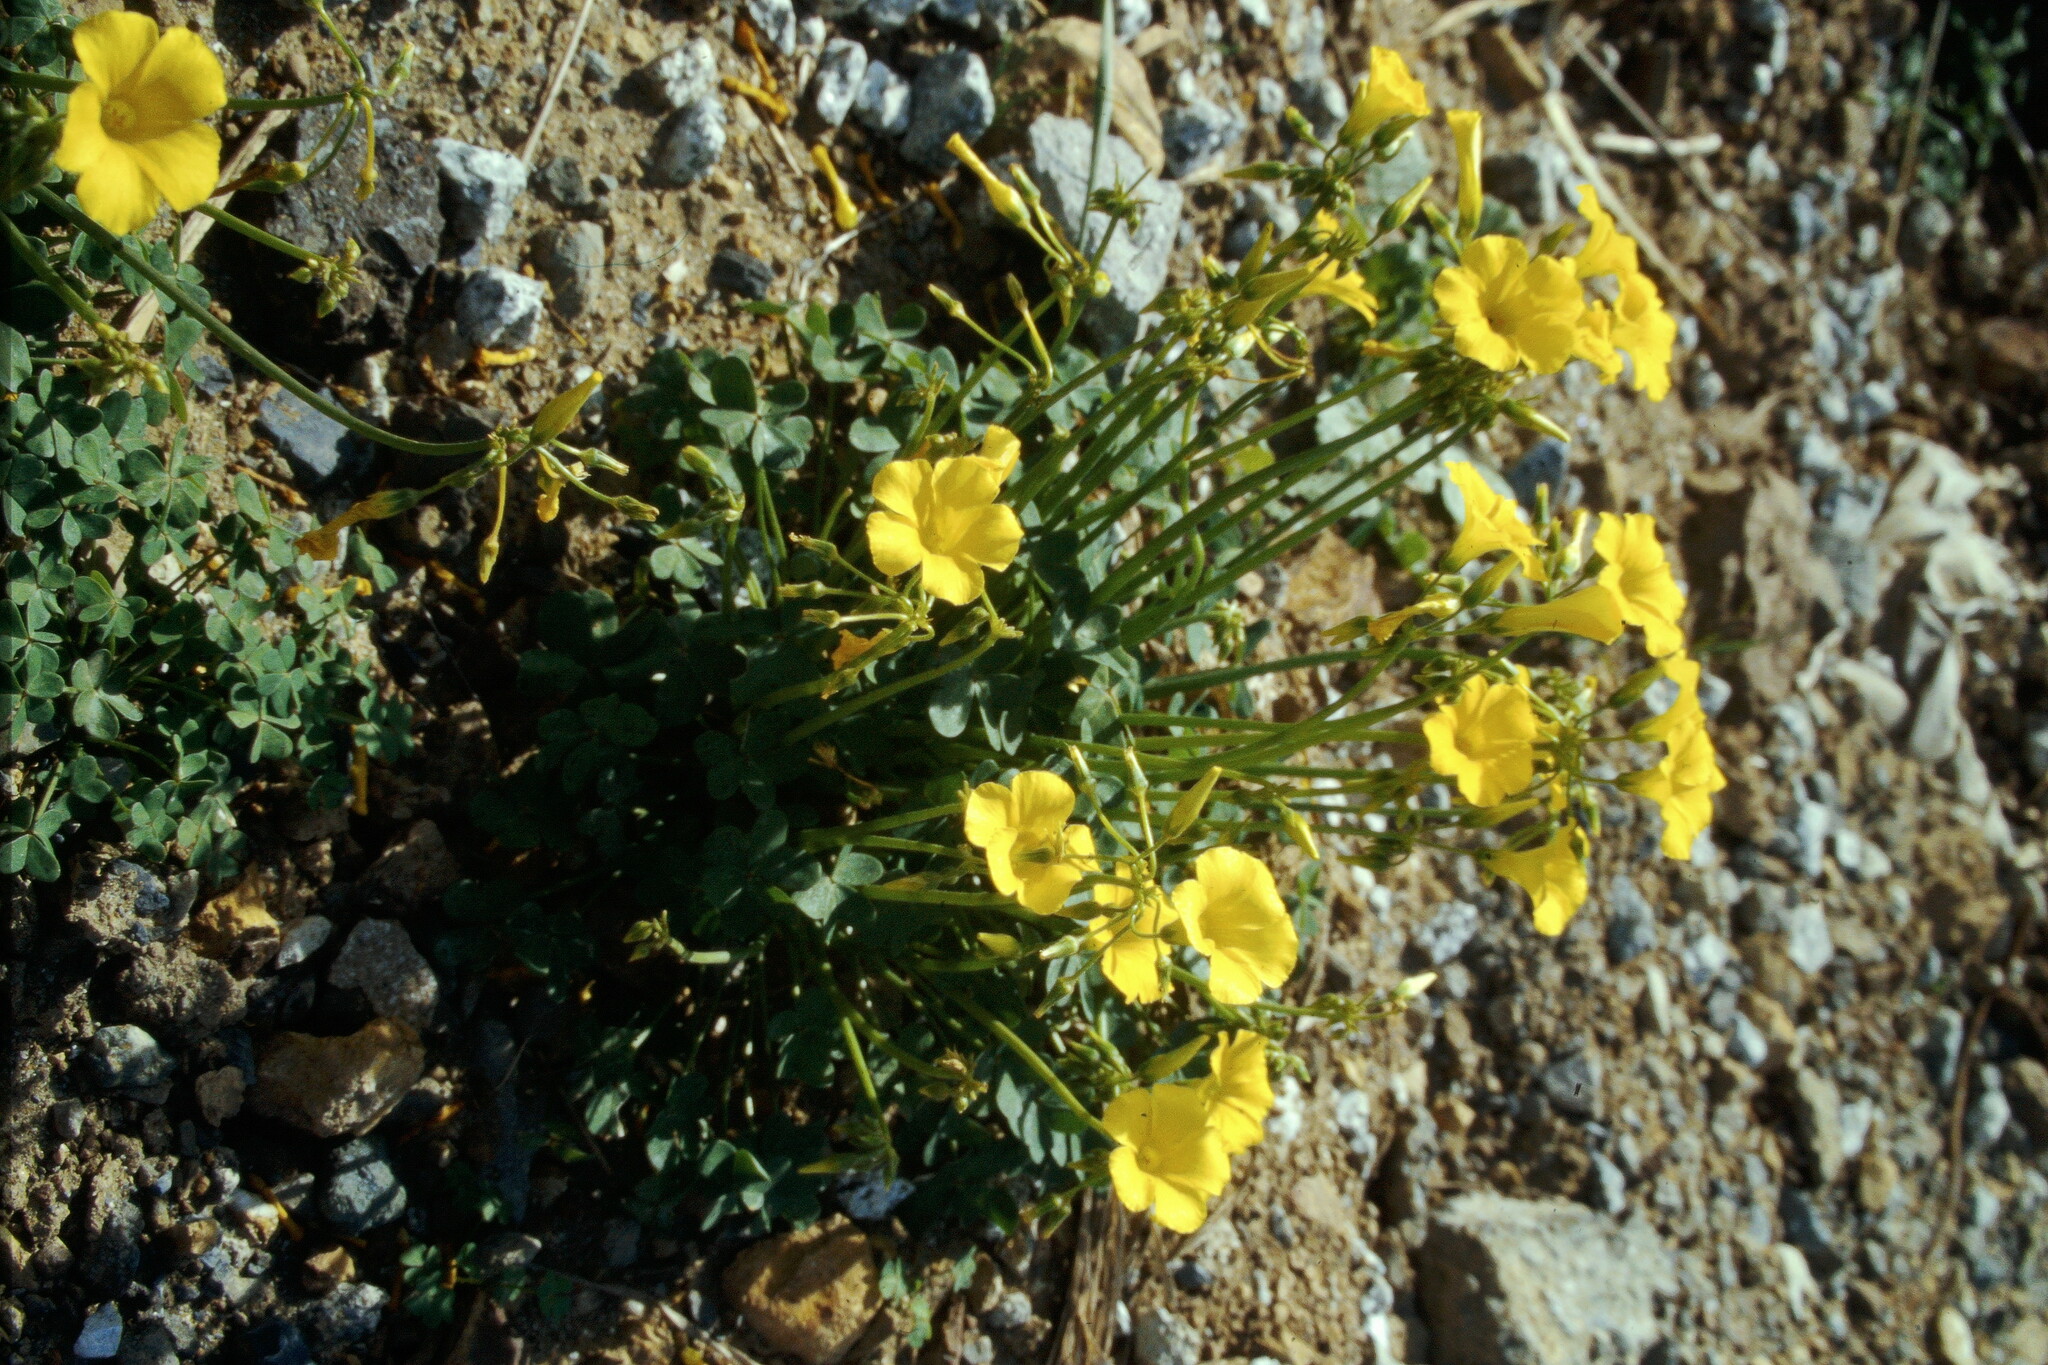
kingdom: Plantae
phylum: Tracheophyta
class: Magnoliopsida
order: Oxalidales
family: Oxalidaceae
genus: Oxalis
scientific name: Oxalis pes-caprae
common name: Bermuda-buttercup
